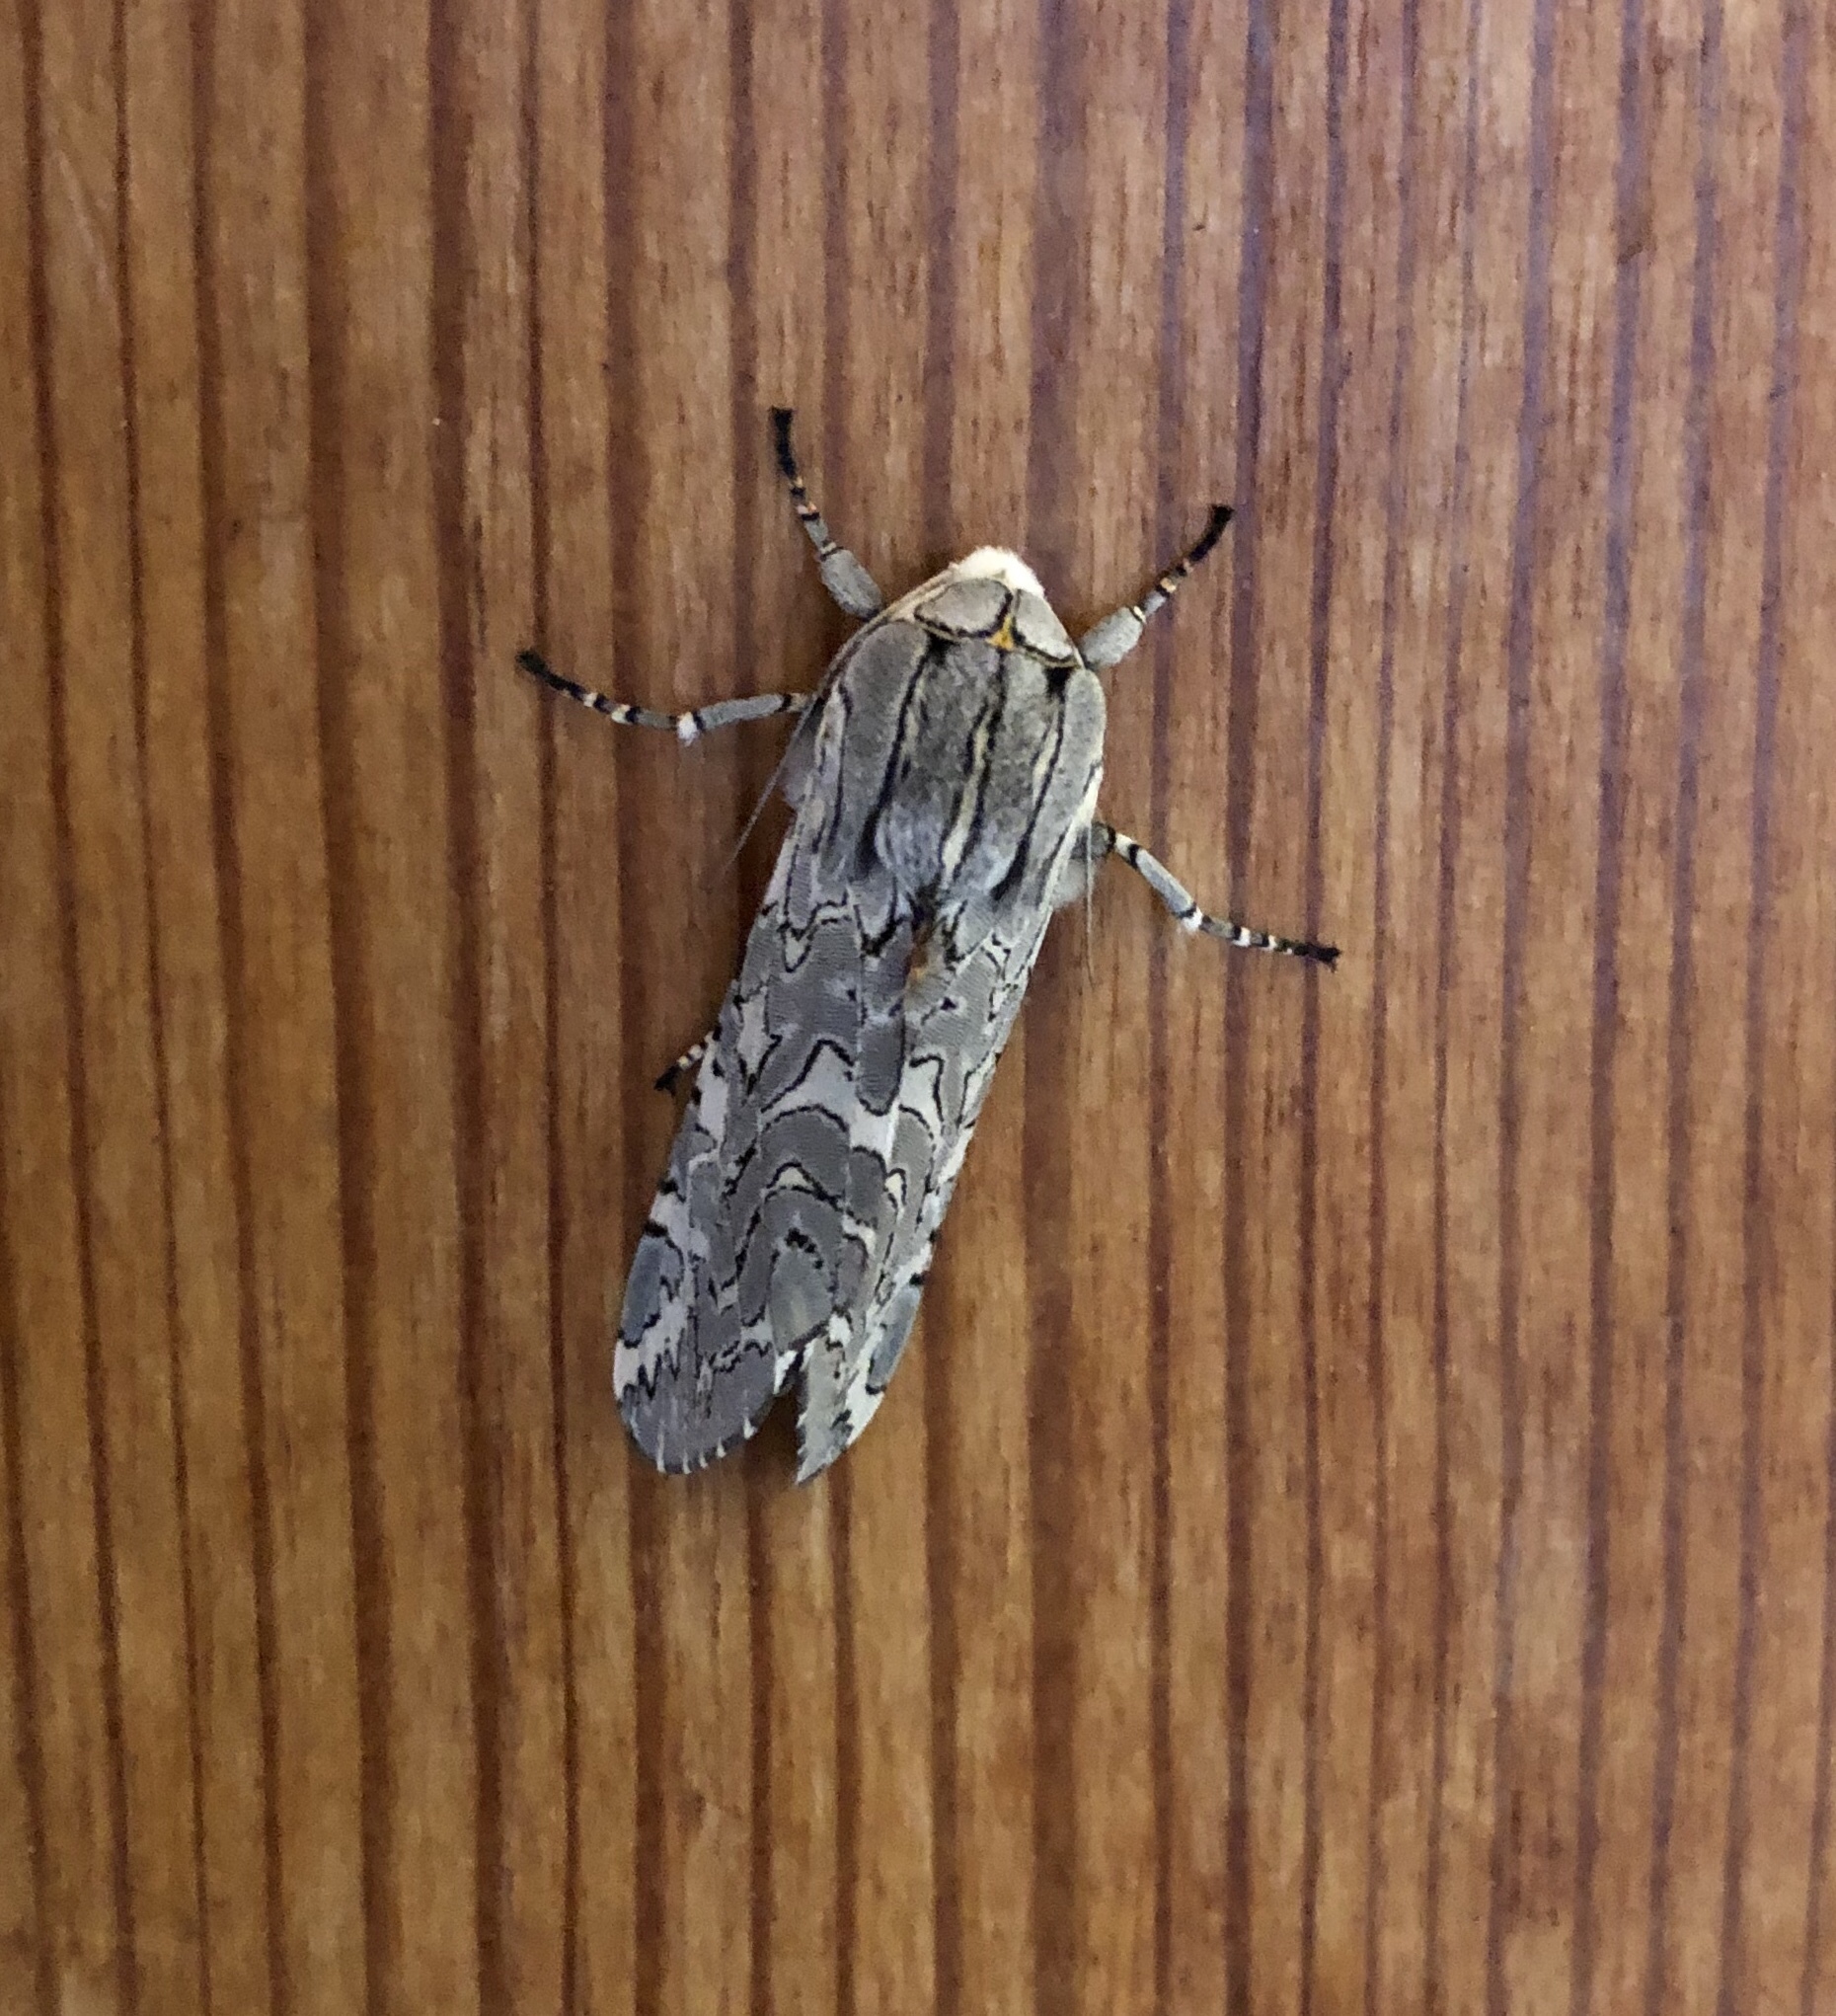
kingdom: Animalia
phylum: Arthropoda
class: Insecta
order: Lepidoptera
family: Erebidae
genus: Arachnis
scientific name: Arachnis picta
